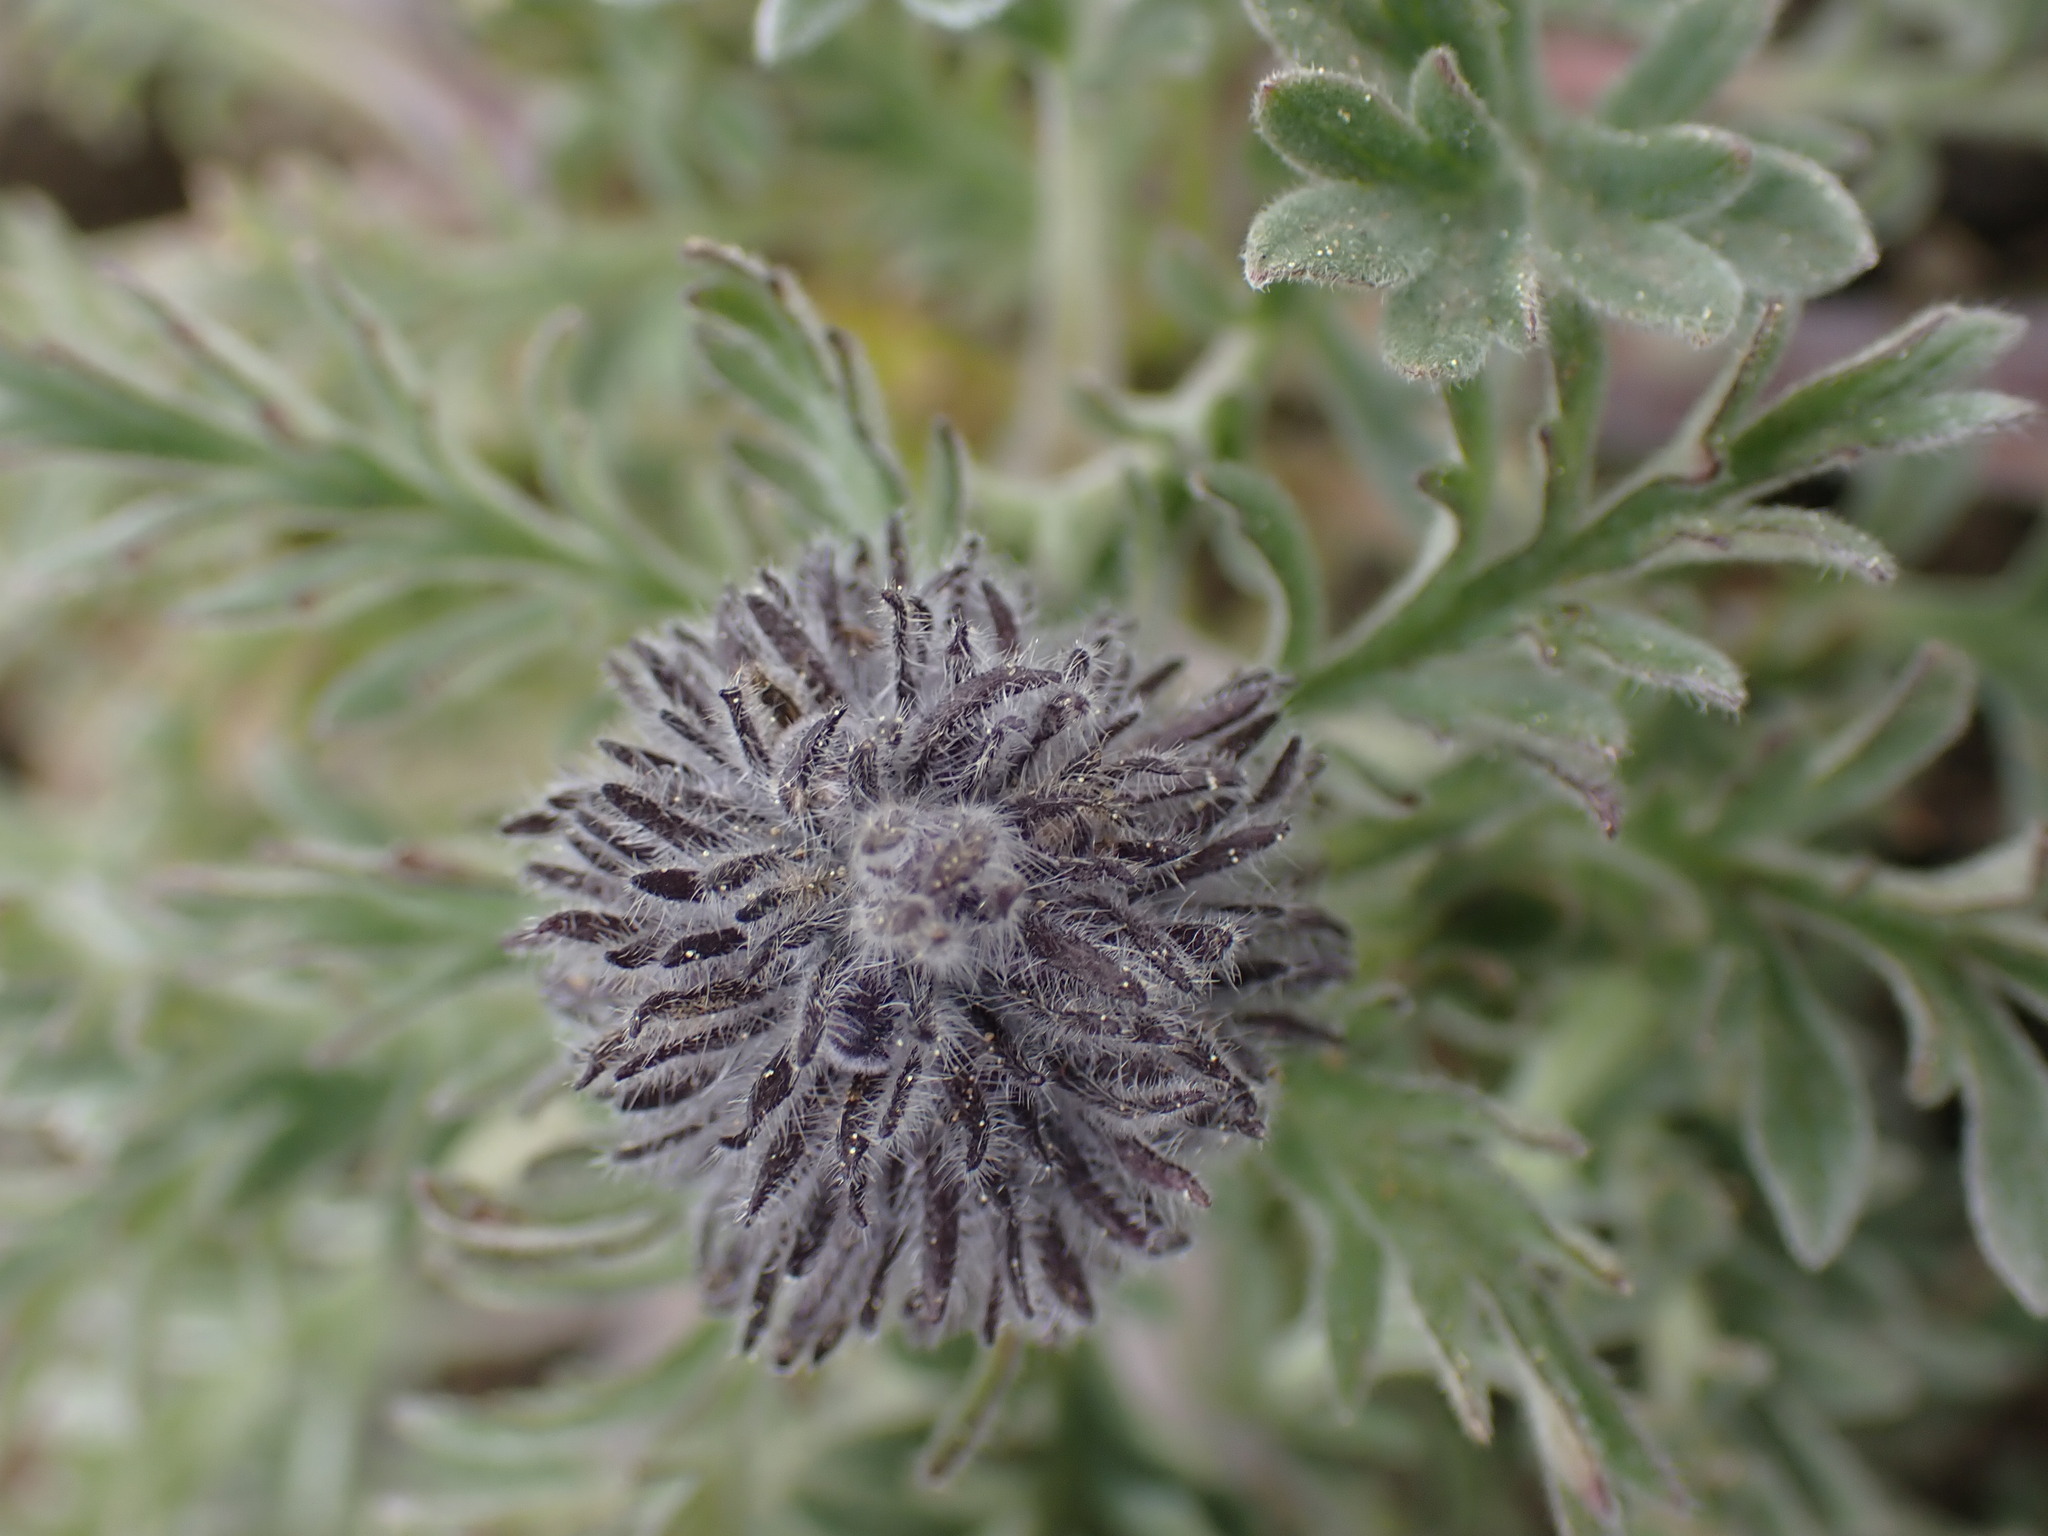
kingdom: Plantae
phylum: Tracheophyta
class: Magnoliopsida
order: Boraginales
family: Hydrophyllaceae
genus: Phacelia
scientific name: Phacelia sericea
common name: Silky phacelia
